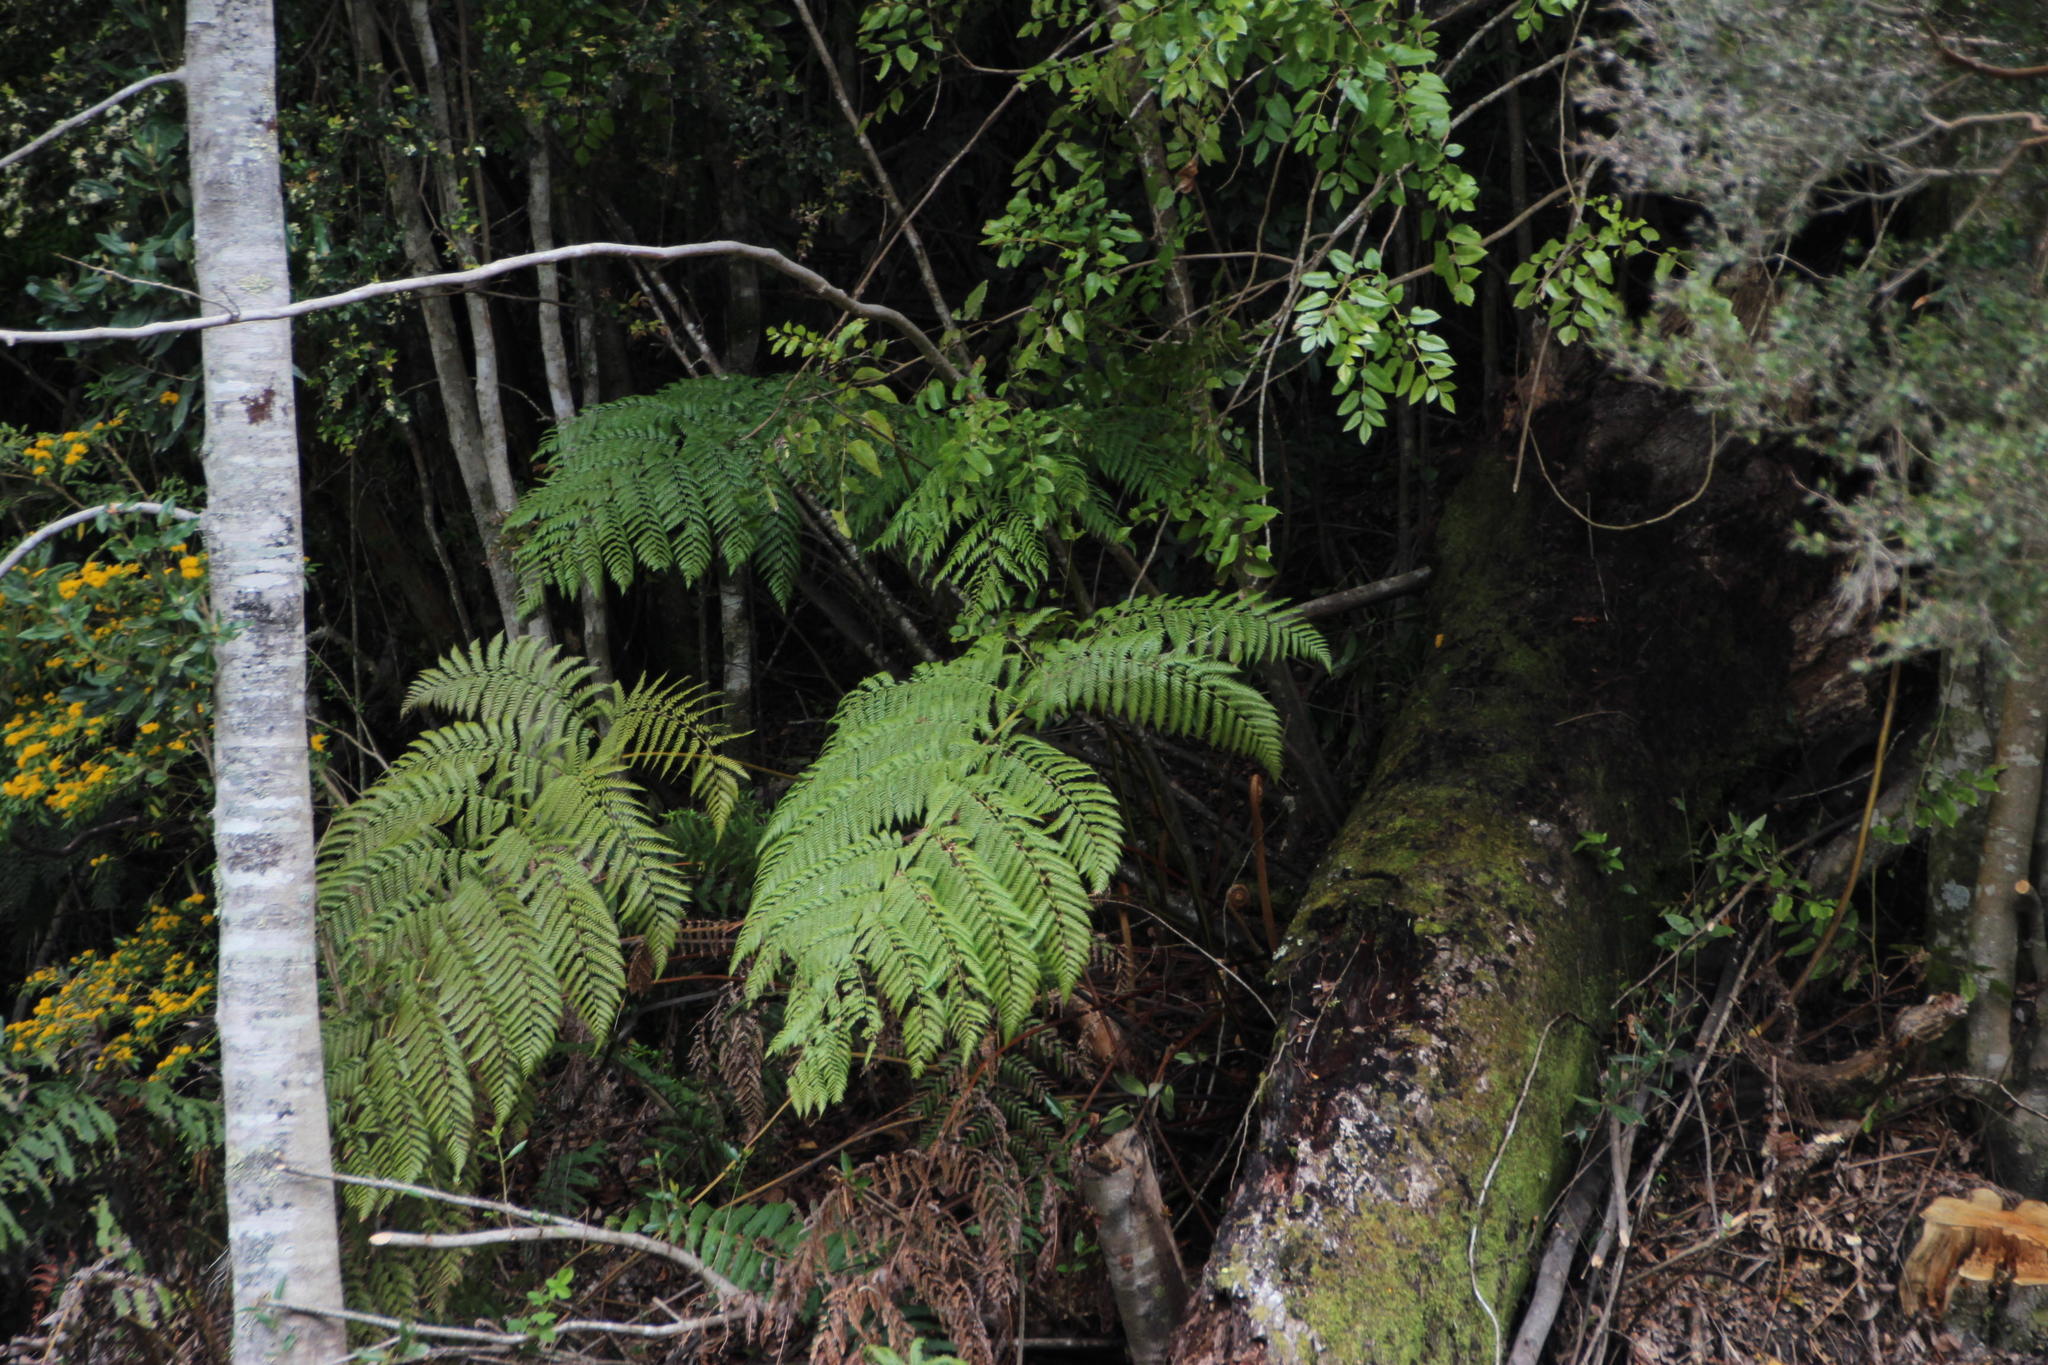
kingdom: Plantae
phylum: Tracheophyta
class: Polypodiopsida
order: Cyatheales
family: Dicksoniaceae
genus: Lophosoria
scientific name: Lophosoria quadripinnata
